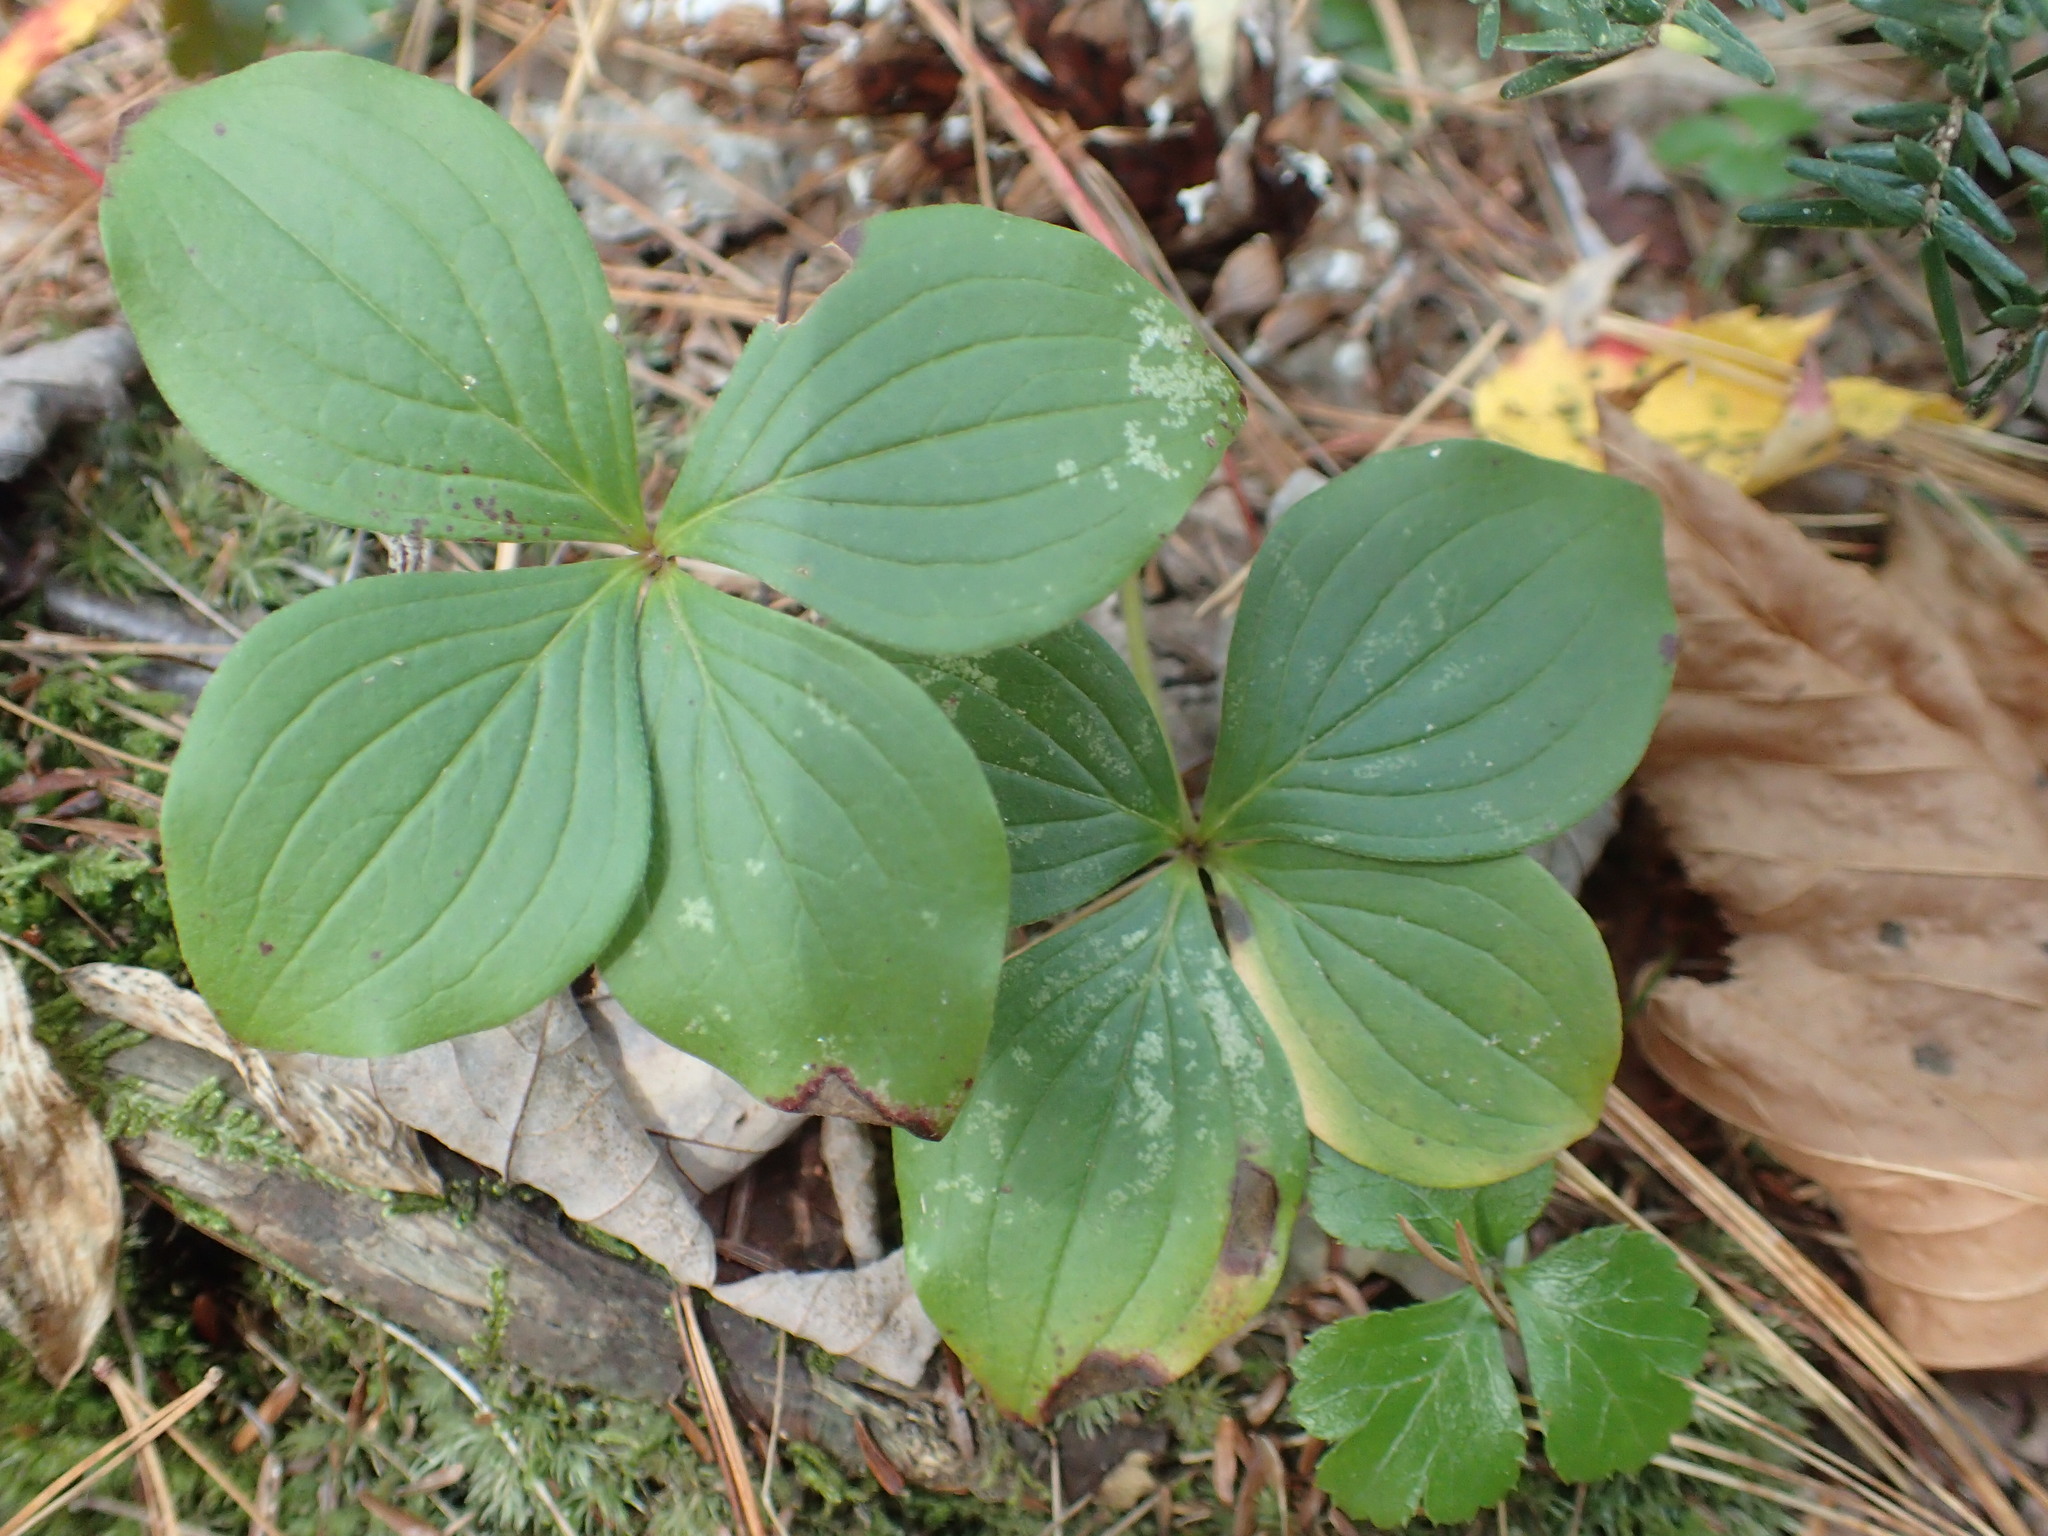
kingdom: Plantae
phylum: Tracheophyta
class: Magnoliopsida
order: Cornales
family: Cornaceae
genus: Cornus
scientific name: Cornus canadensis
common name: Creeping dogwood
